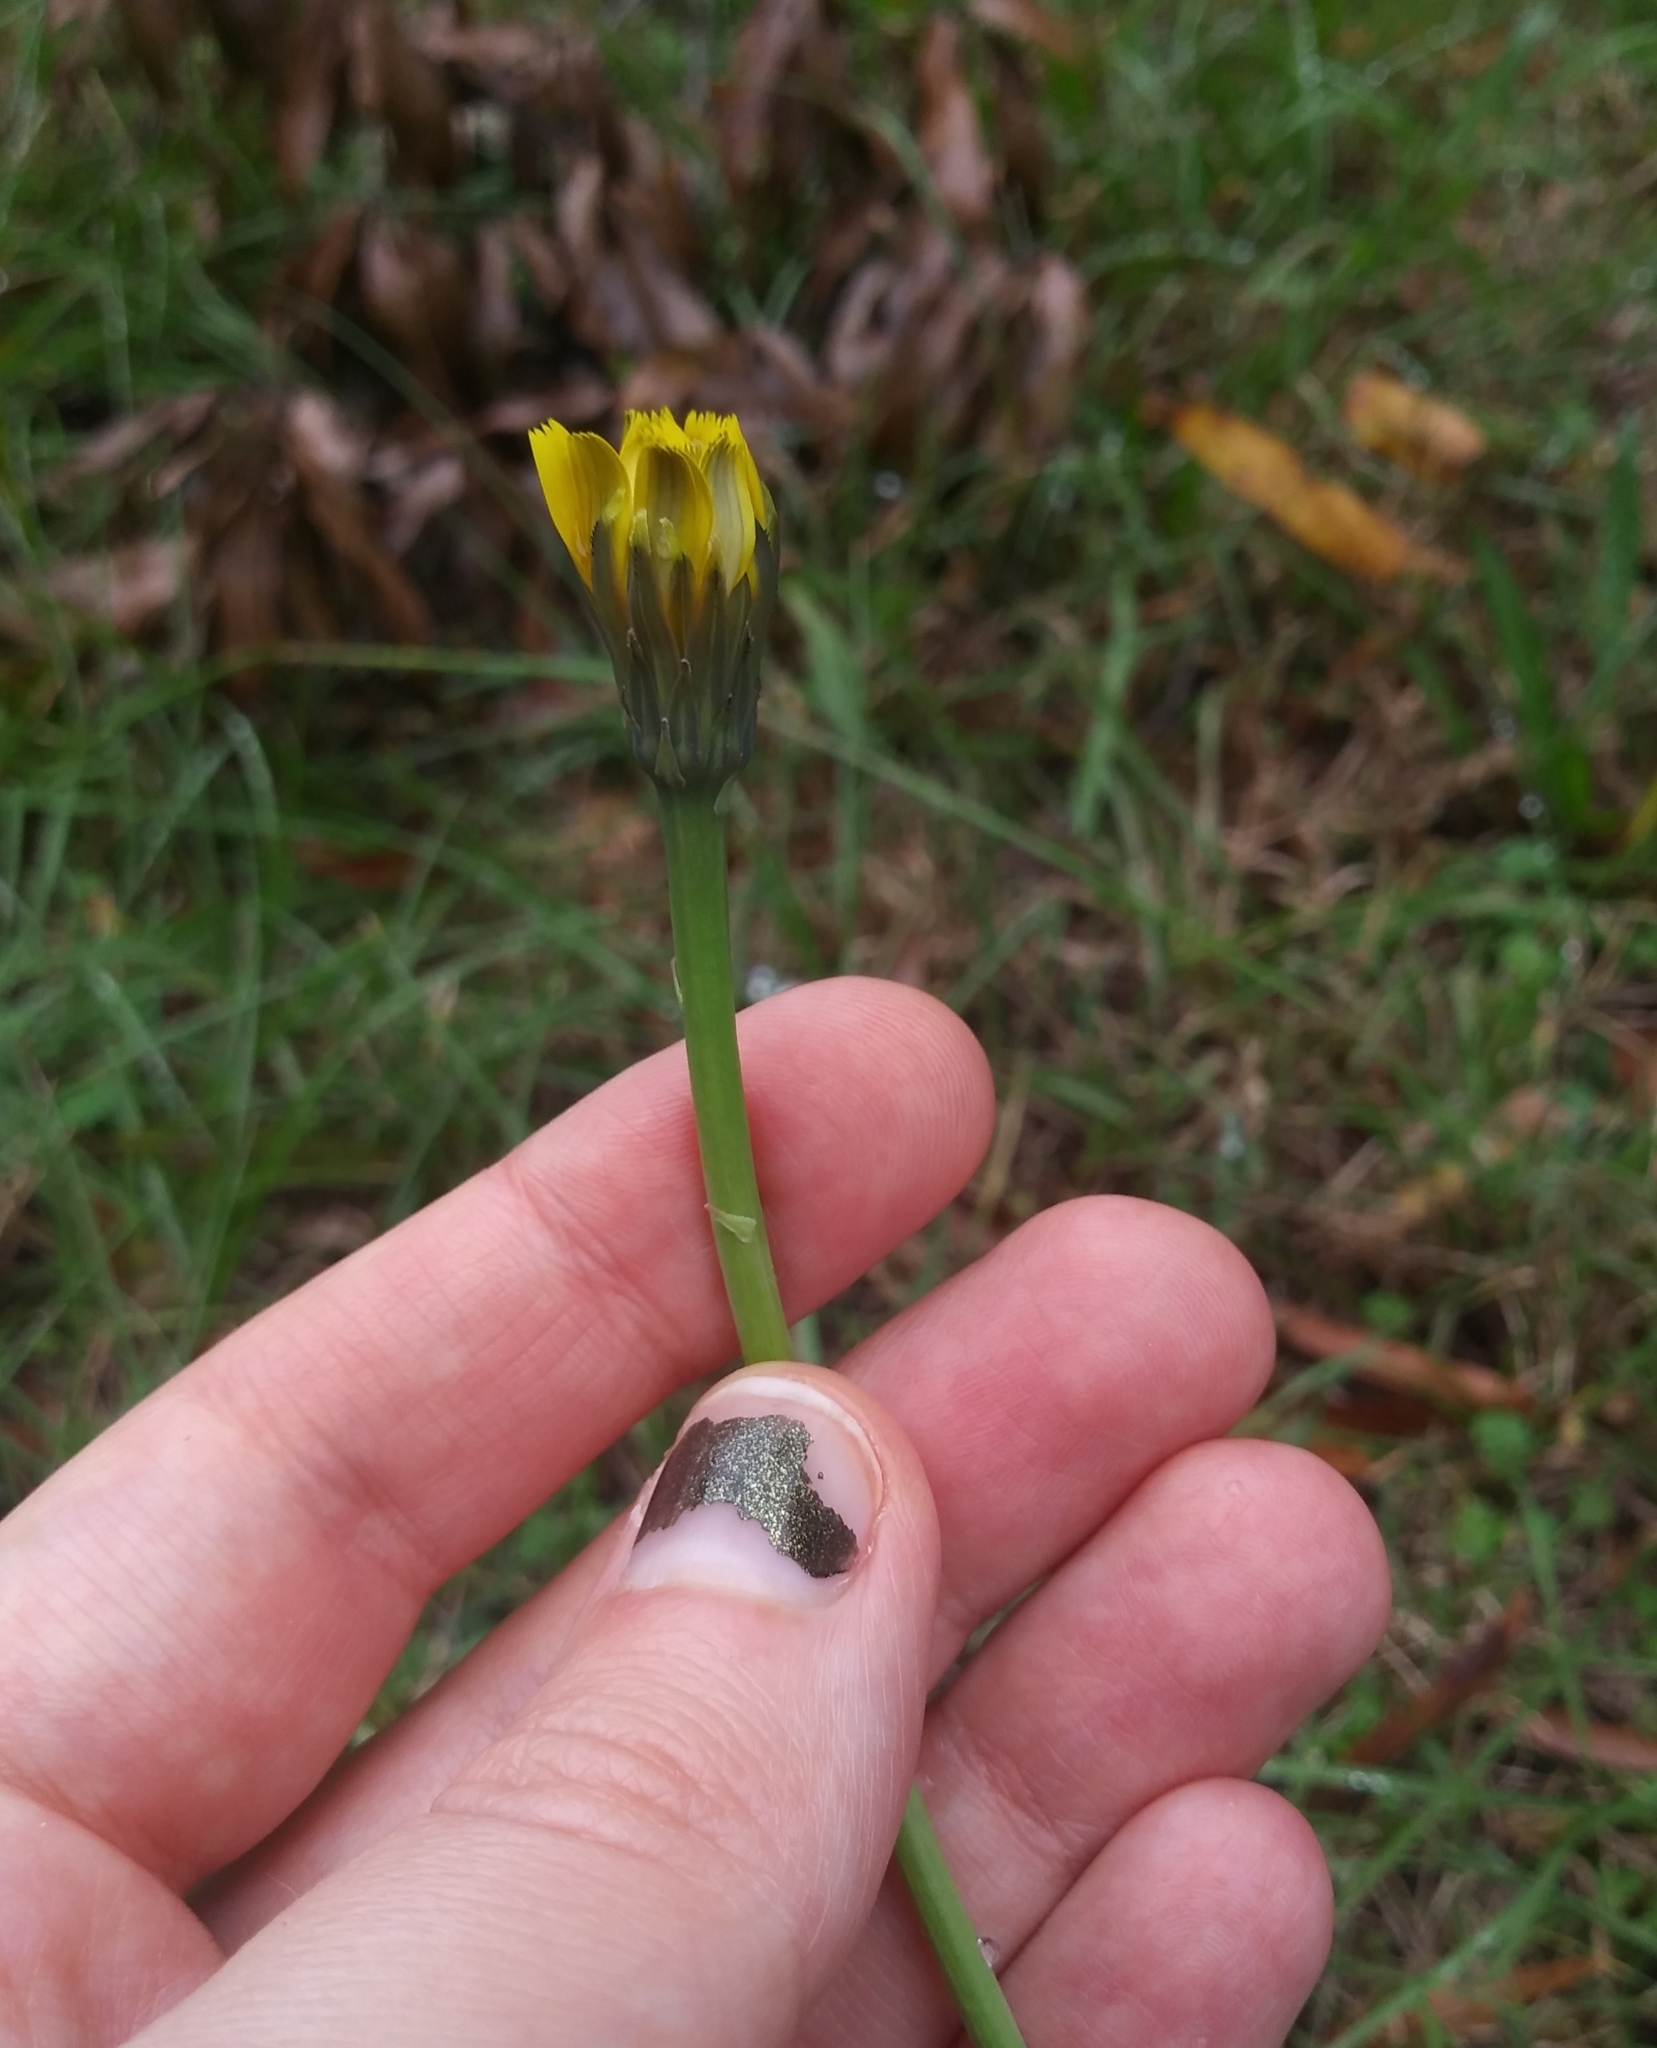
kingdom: Plantae
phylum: Tracheophyta
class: Magnoliopsida
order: Asterales
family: Asteraceae
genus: Hypochaeris
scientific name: Hypochaeris radicata
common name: Flatweed
